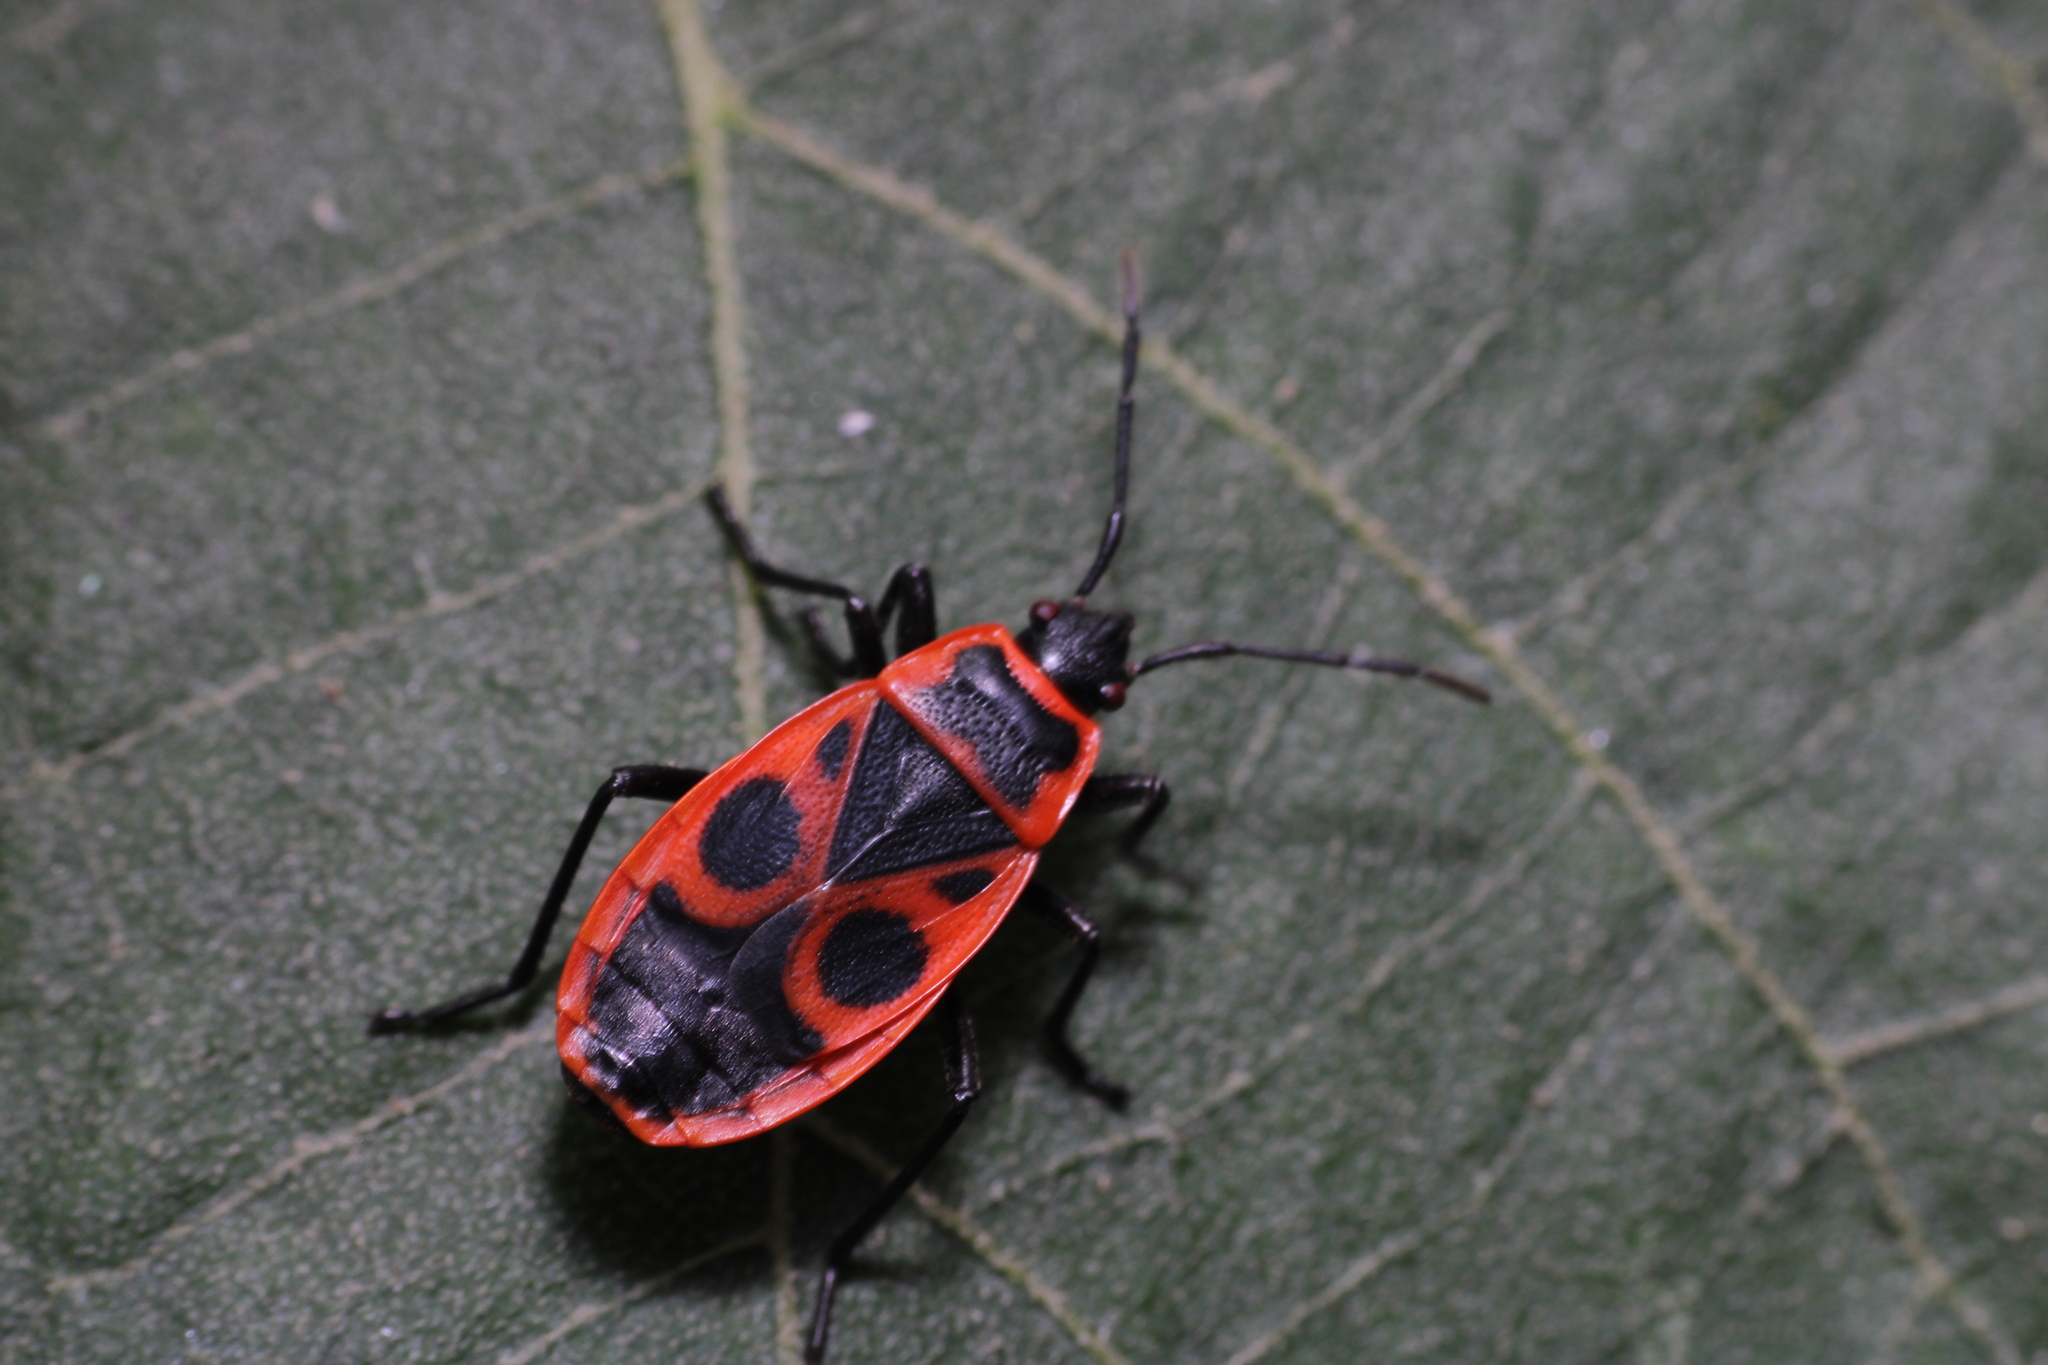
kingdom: Animalia
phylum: Arthropoda
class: Insecta
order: Hemiptera
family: Pyrrhocoridae
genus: Pyrrhocoris
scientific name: Pyrrhocoris apterus
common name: Firebug
